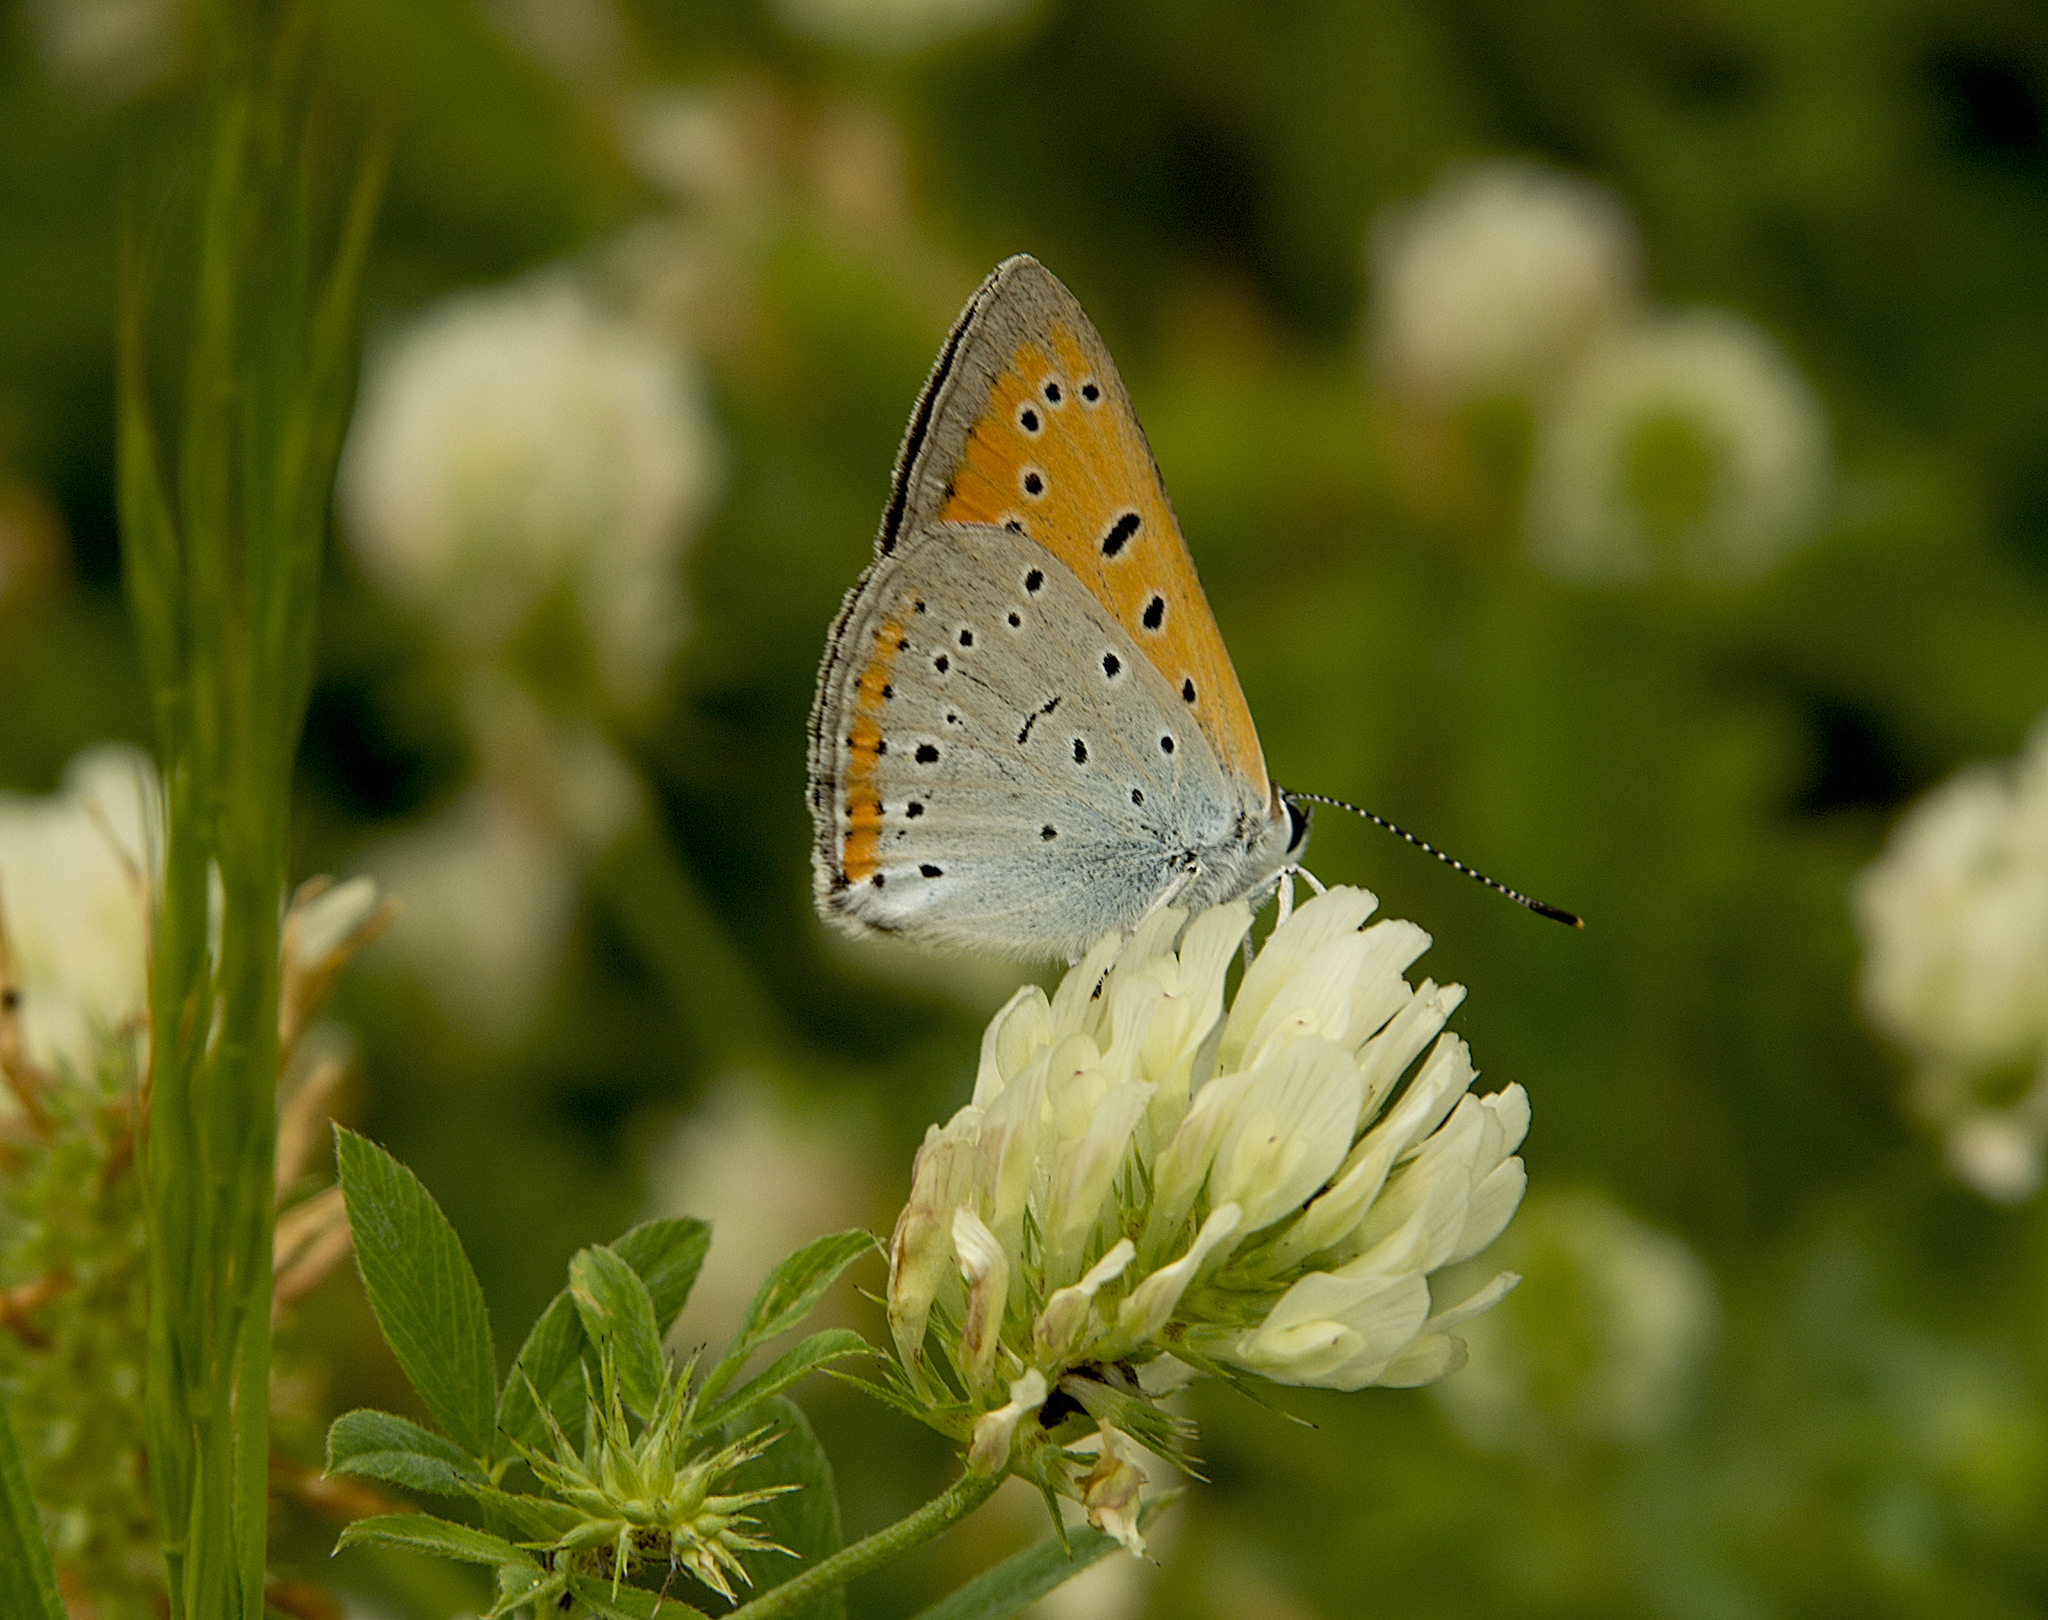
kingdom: Animalia
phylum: Arthropoda
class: Insecta
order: Lepidoptera
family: Lycaenidae
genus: Lycaena
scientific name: Lycaena dispar
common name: Large copper
